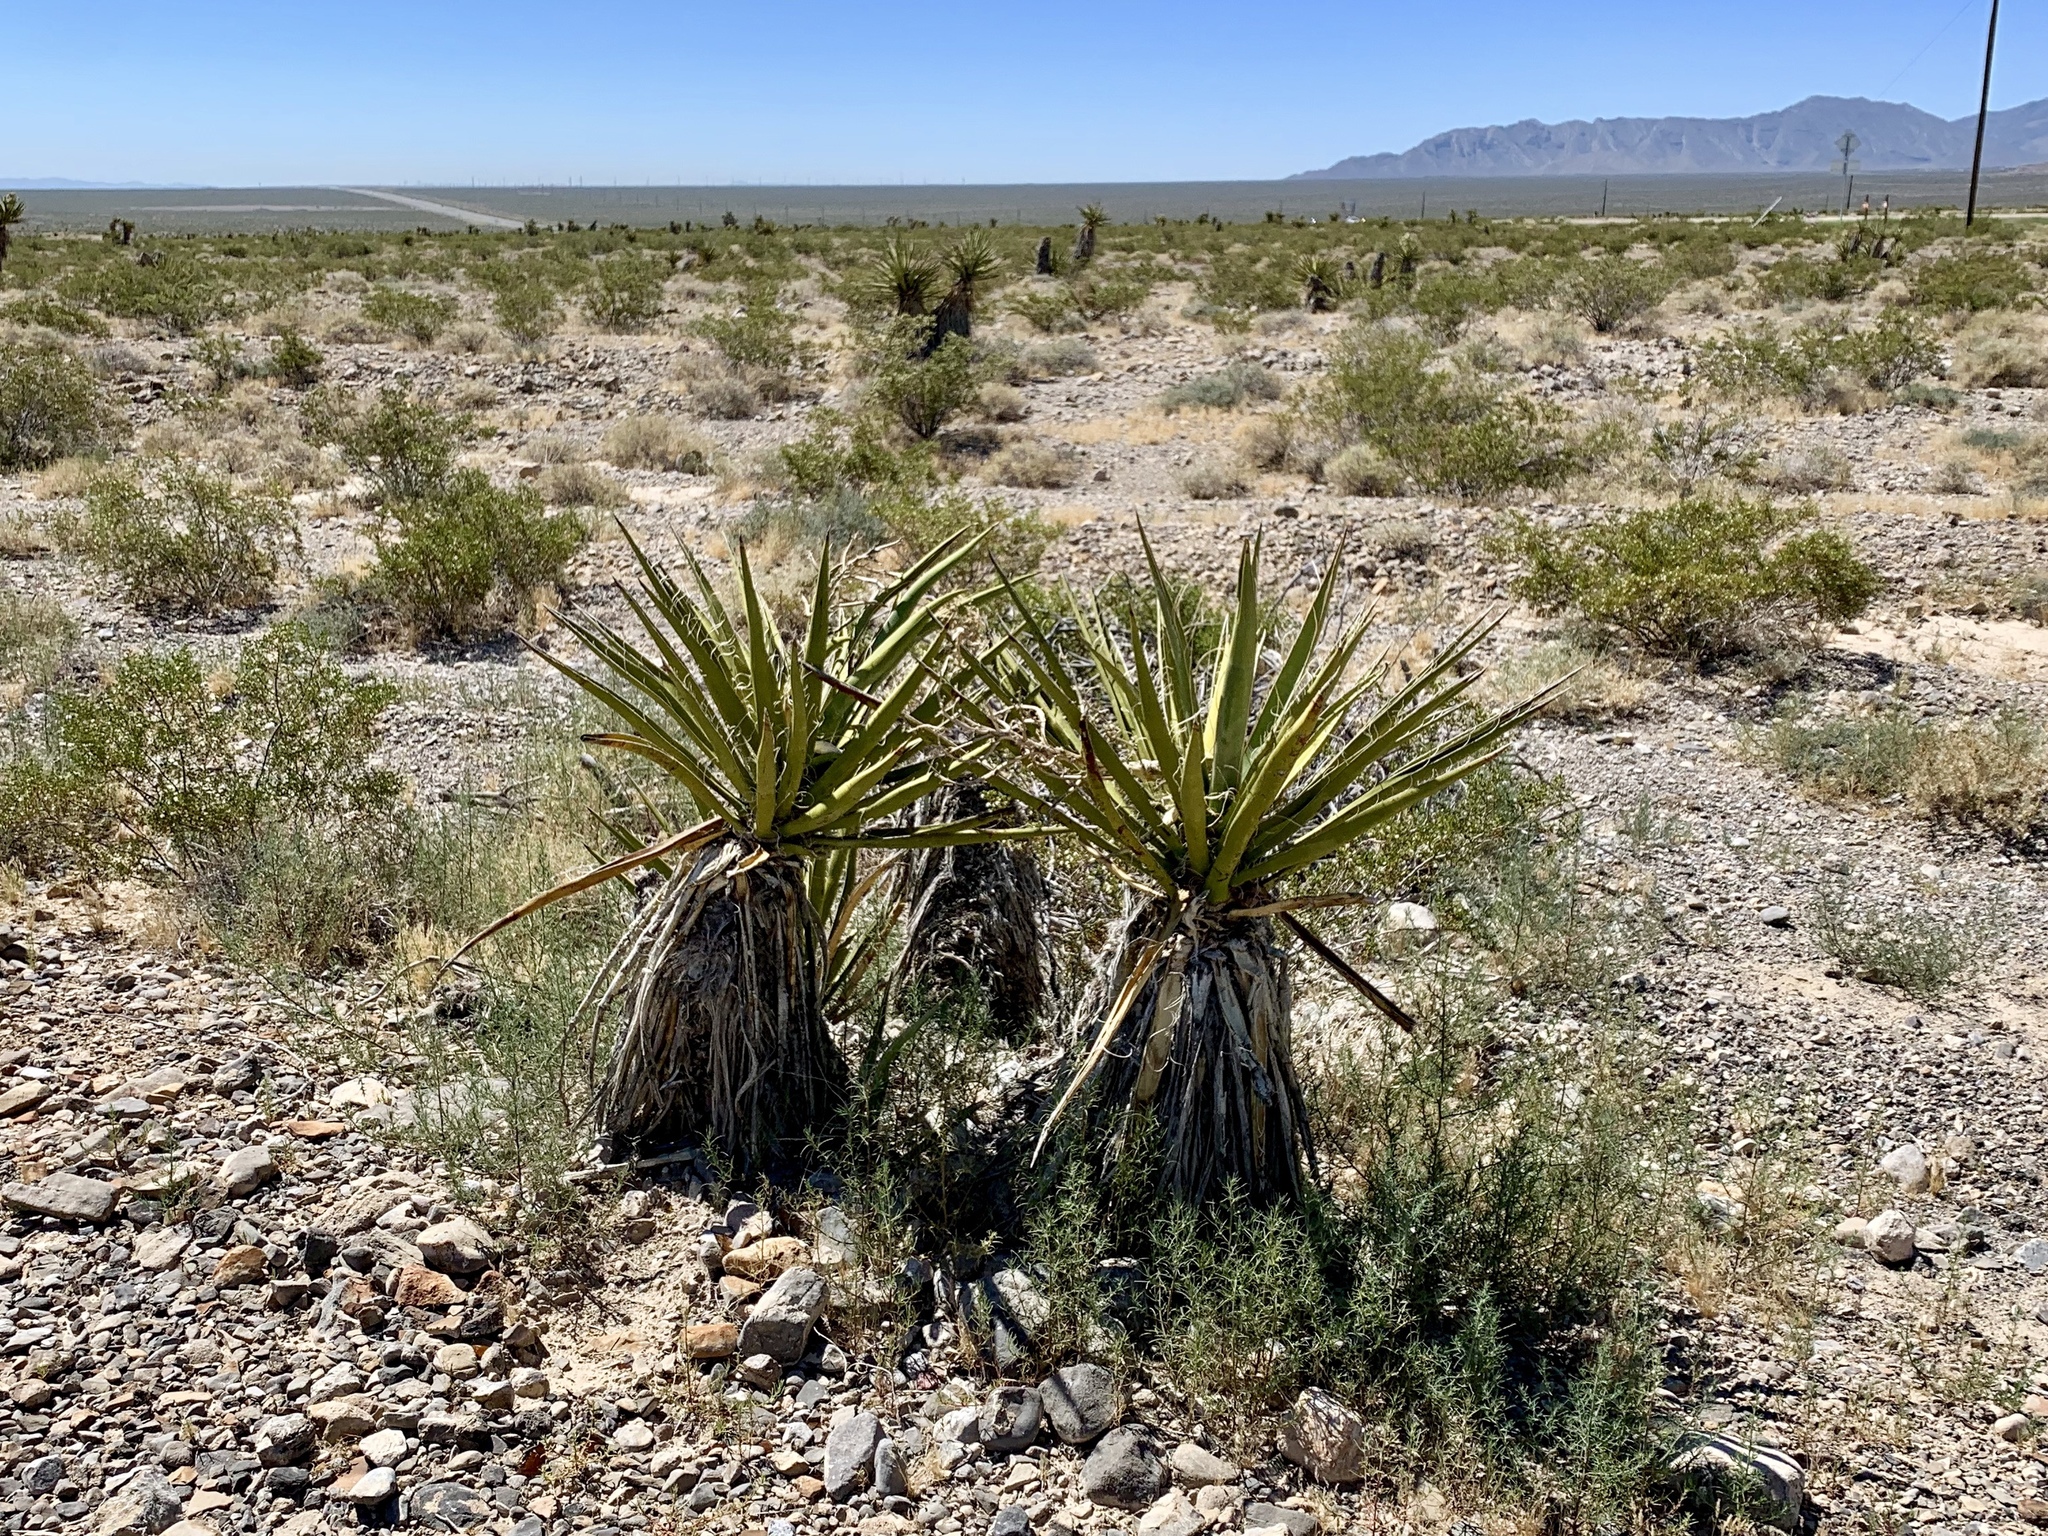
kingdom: Plantae
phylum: Tracheophyta
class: Liliopsida
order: Asparagales
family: Asparagaceae
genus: Yucca
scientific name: Yucca schidigera
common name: Mojave yucca
